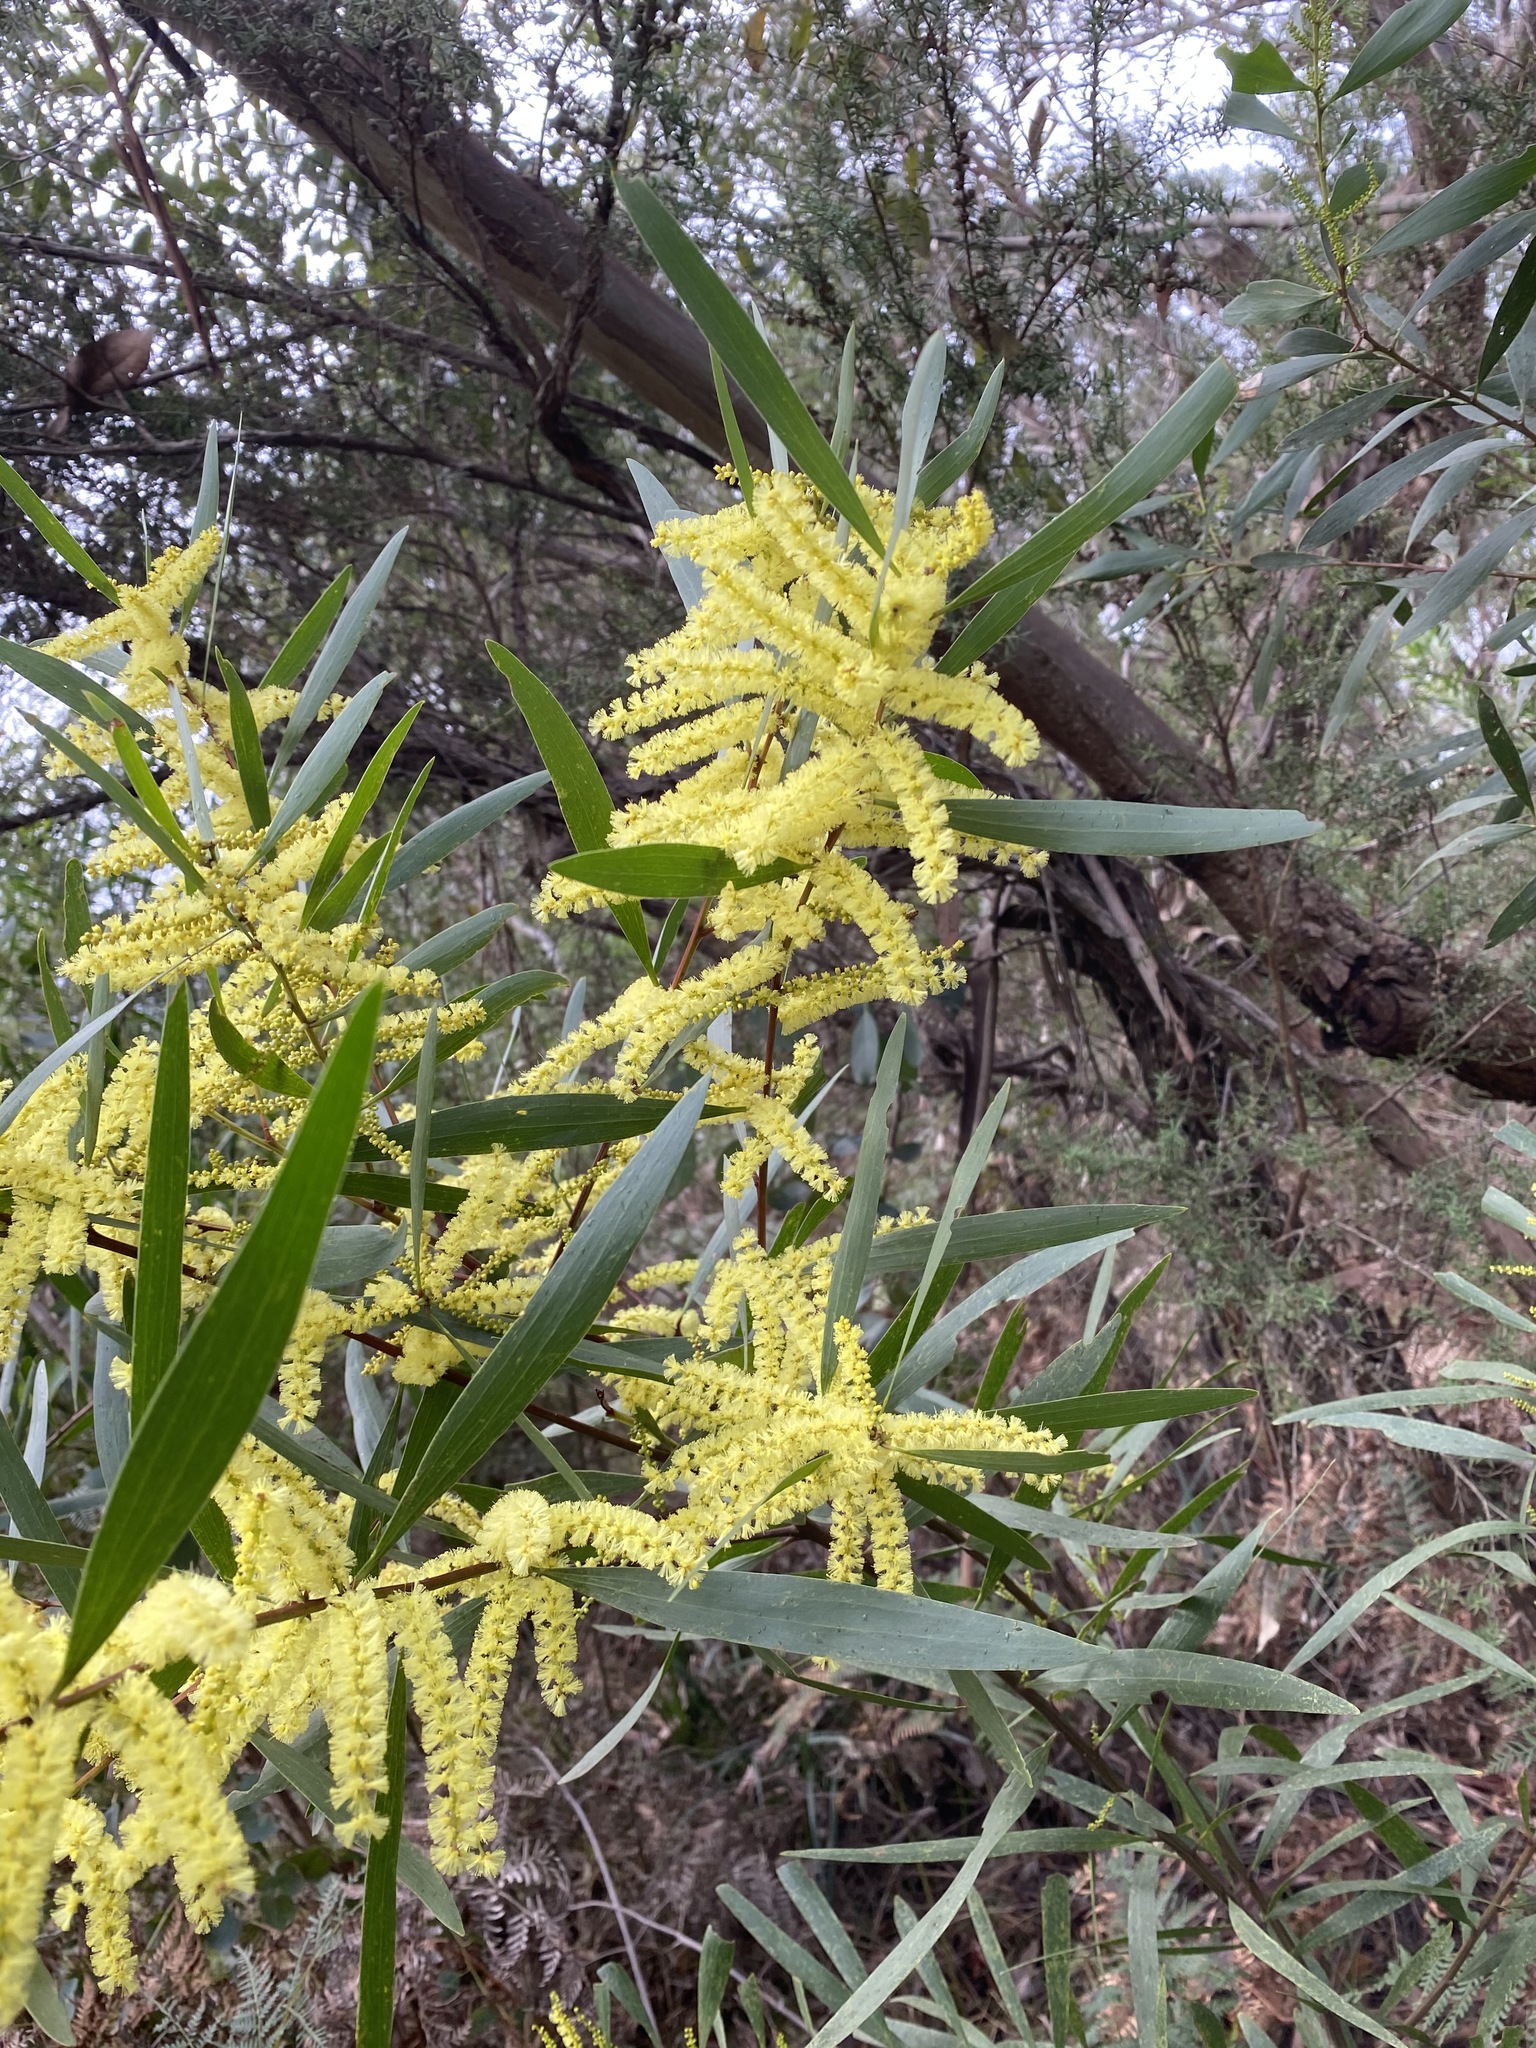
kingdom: Plantae
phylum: Tracheophyta
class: Magnoliopsida
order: Fabales
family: Fabaceae
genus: Acacia
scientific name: Acacia longifolia
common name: Sydney golden wattle
